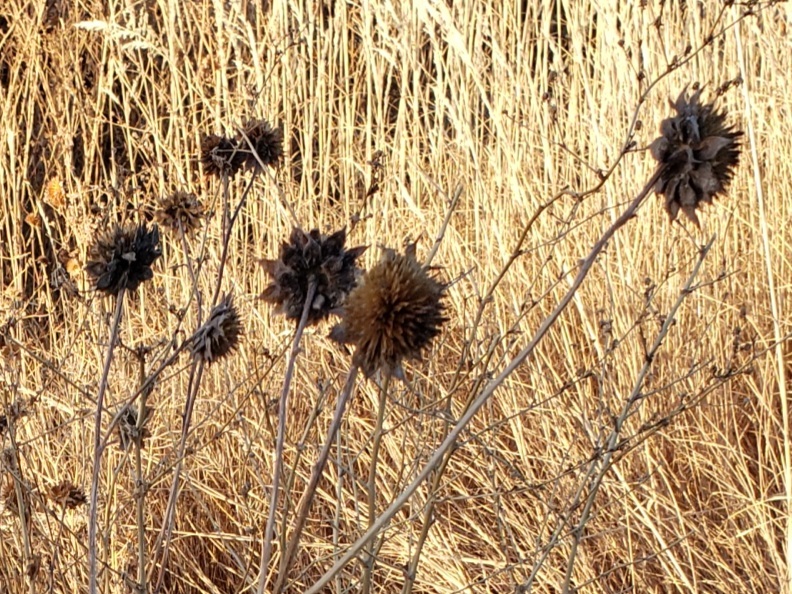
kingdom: Plantae
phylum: Tracheophyta
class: Magnoliopsida
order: Asterales
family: Asteraceae
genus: Helianthus
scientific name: Helianthus annuus
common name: Sunflower
